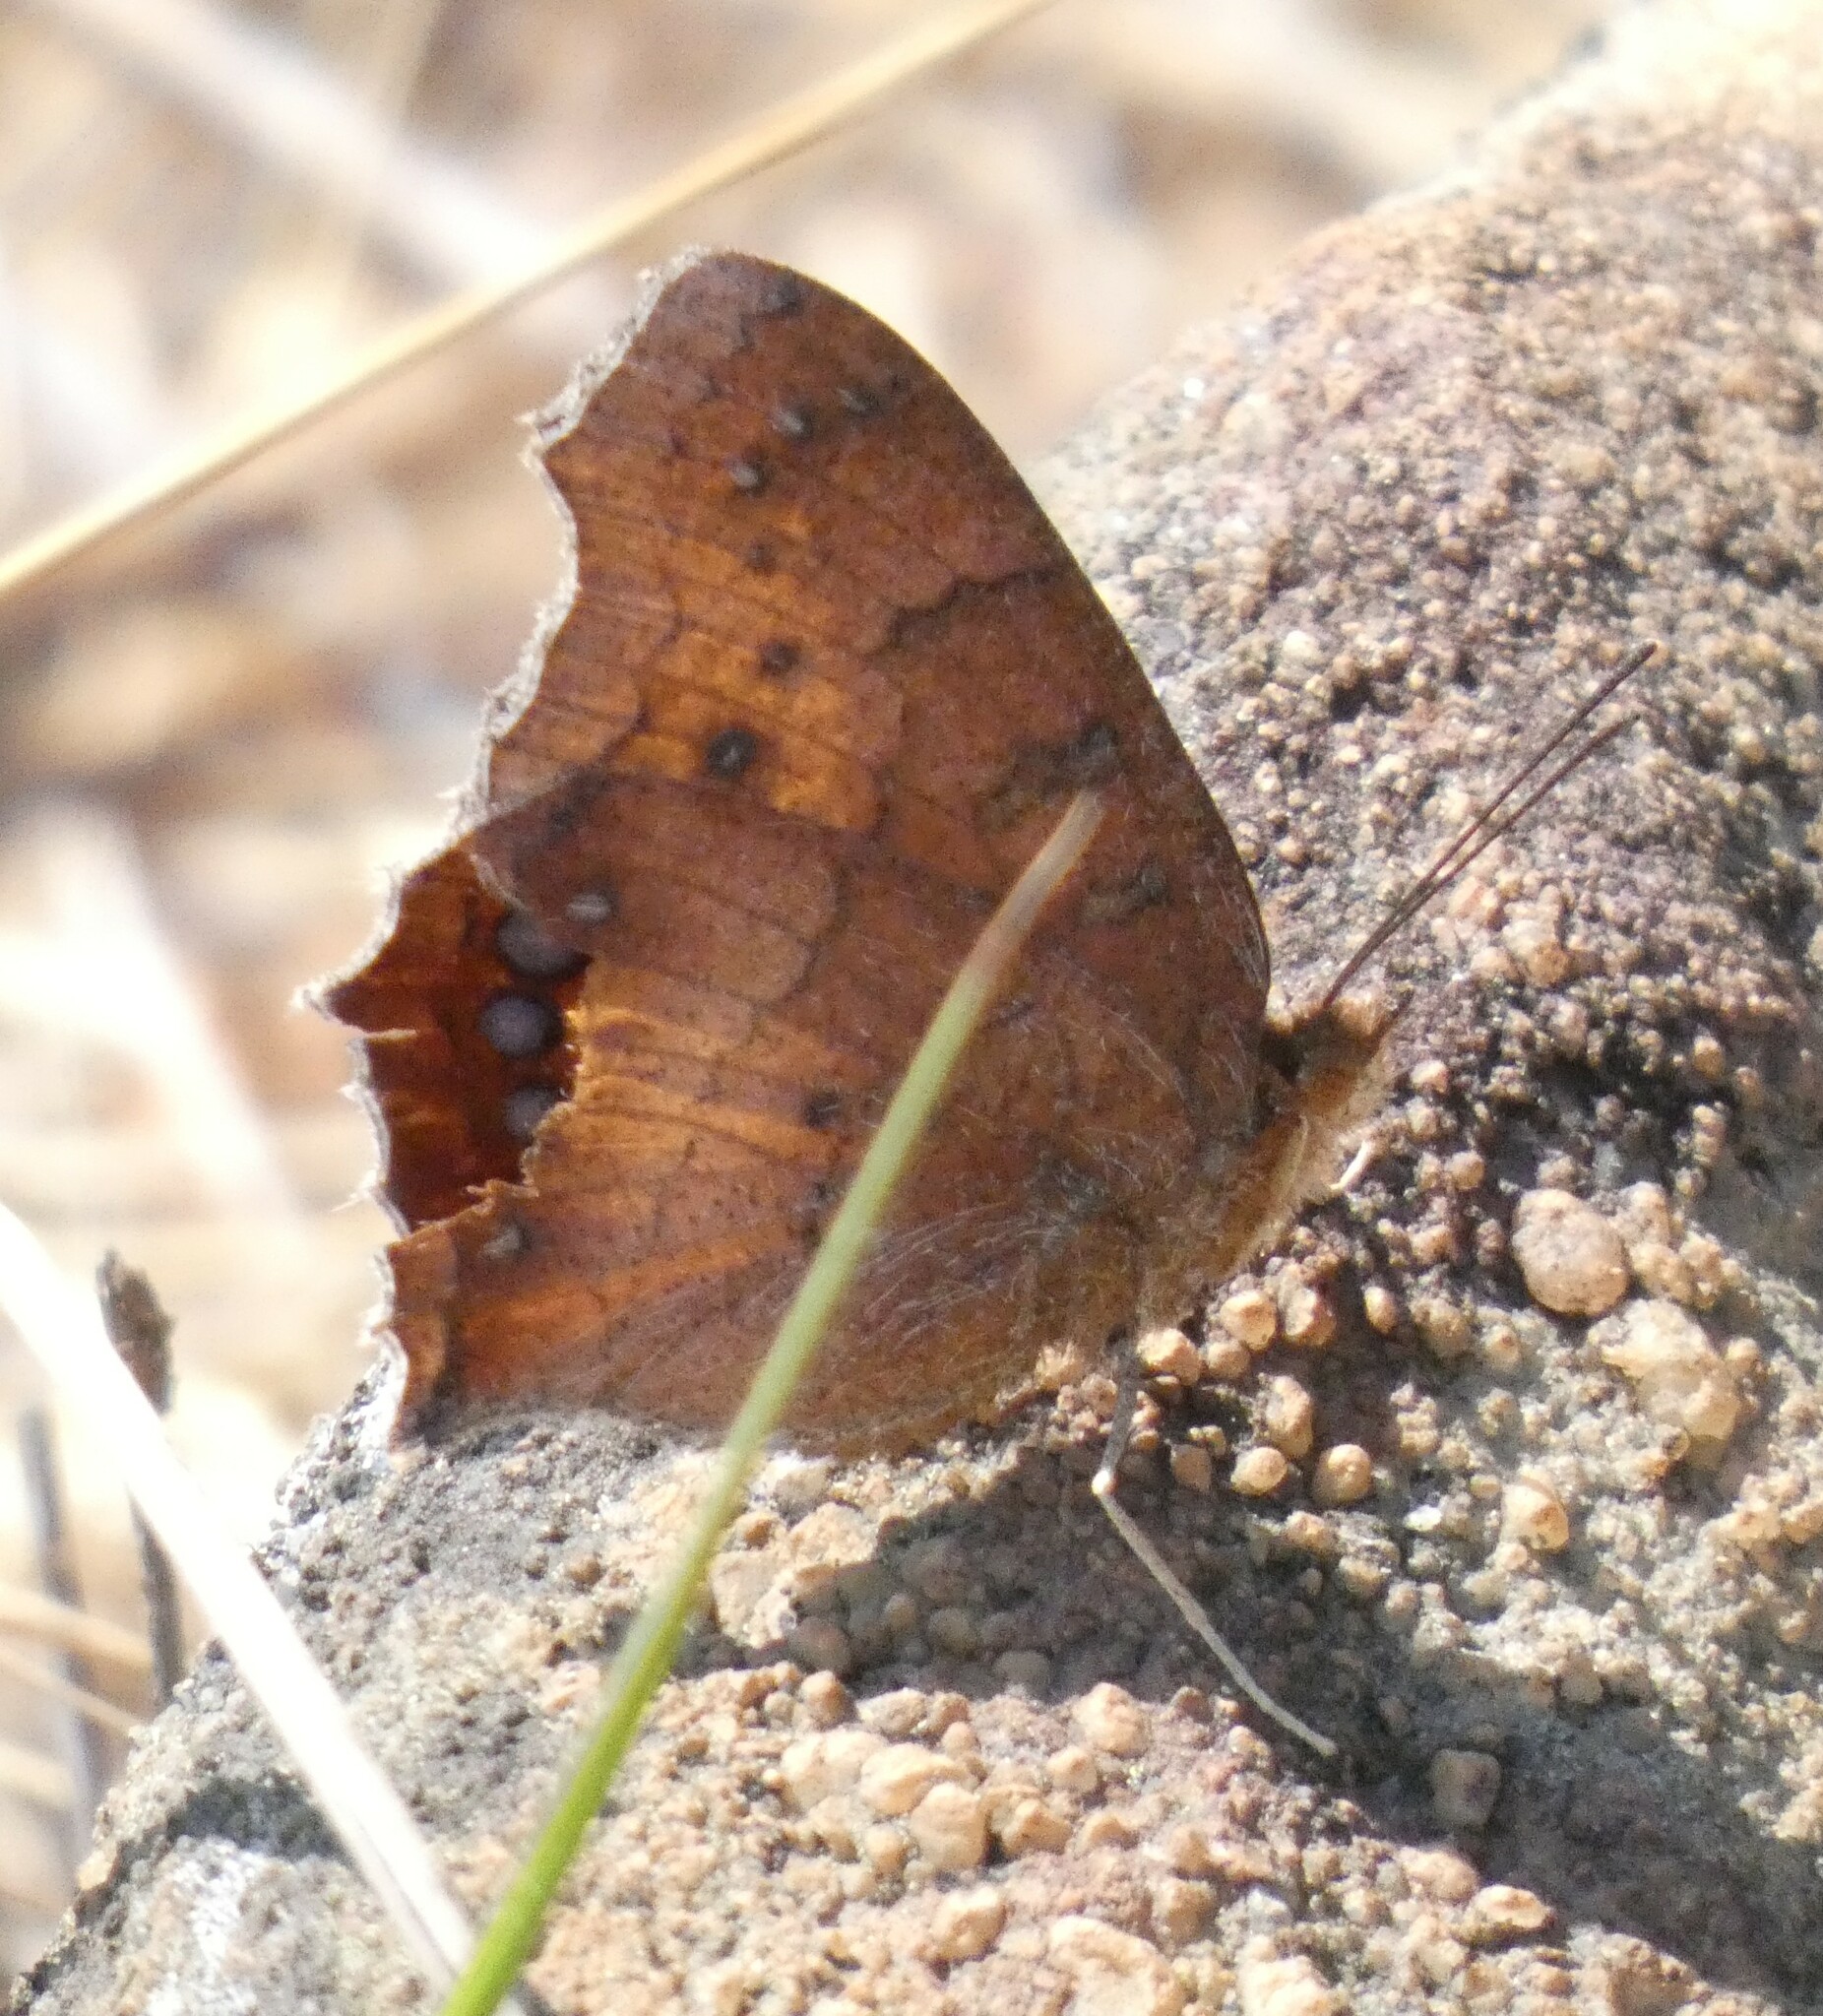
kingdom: Animalia
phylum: Arthropoda
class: Insecta
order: Lepidoptera
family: Nymphalidae
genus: Catacroptera
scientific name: Catacroptera cloanthe
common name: Pirate
